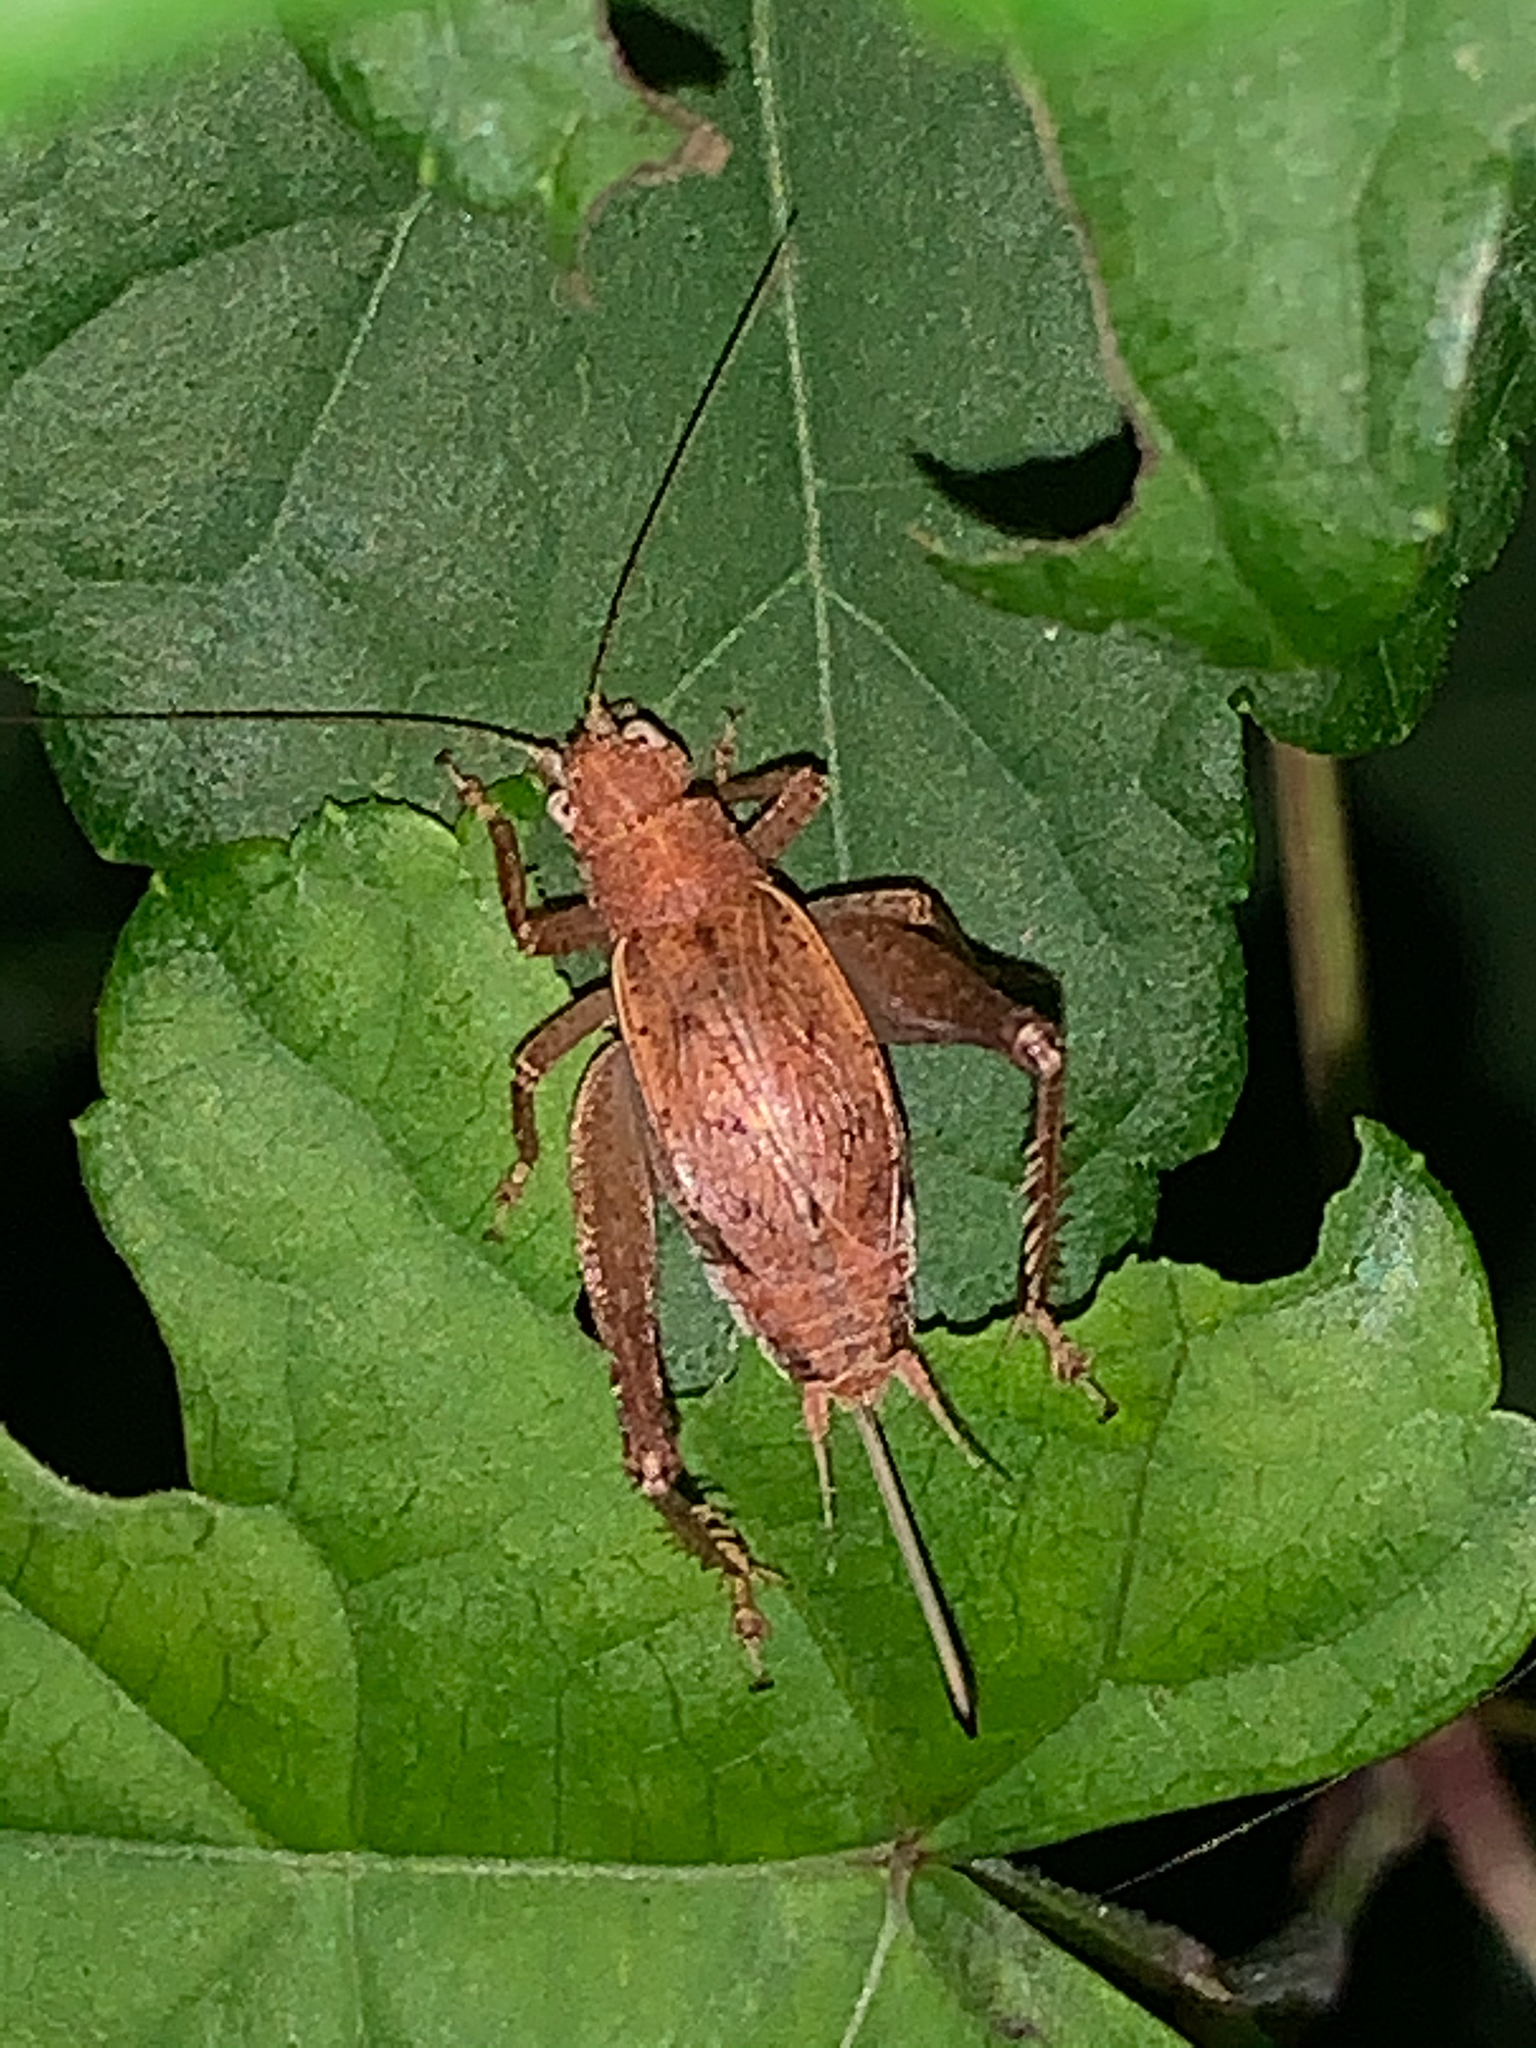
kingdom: Animalia
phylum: Arthropoda
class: Insecta
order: Orthoptera
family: Gryllidae
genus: Hapithus
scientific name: Hapithus agitator
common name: Restless bush cricket
